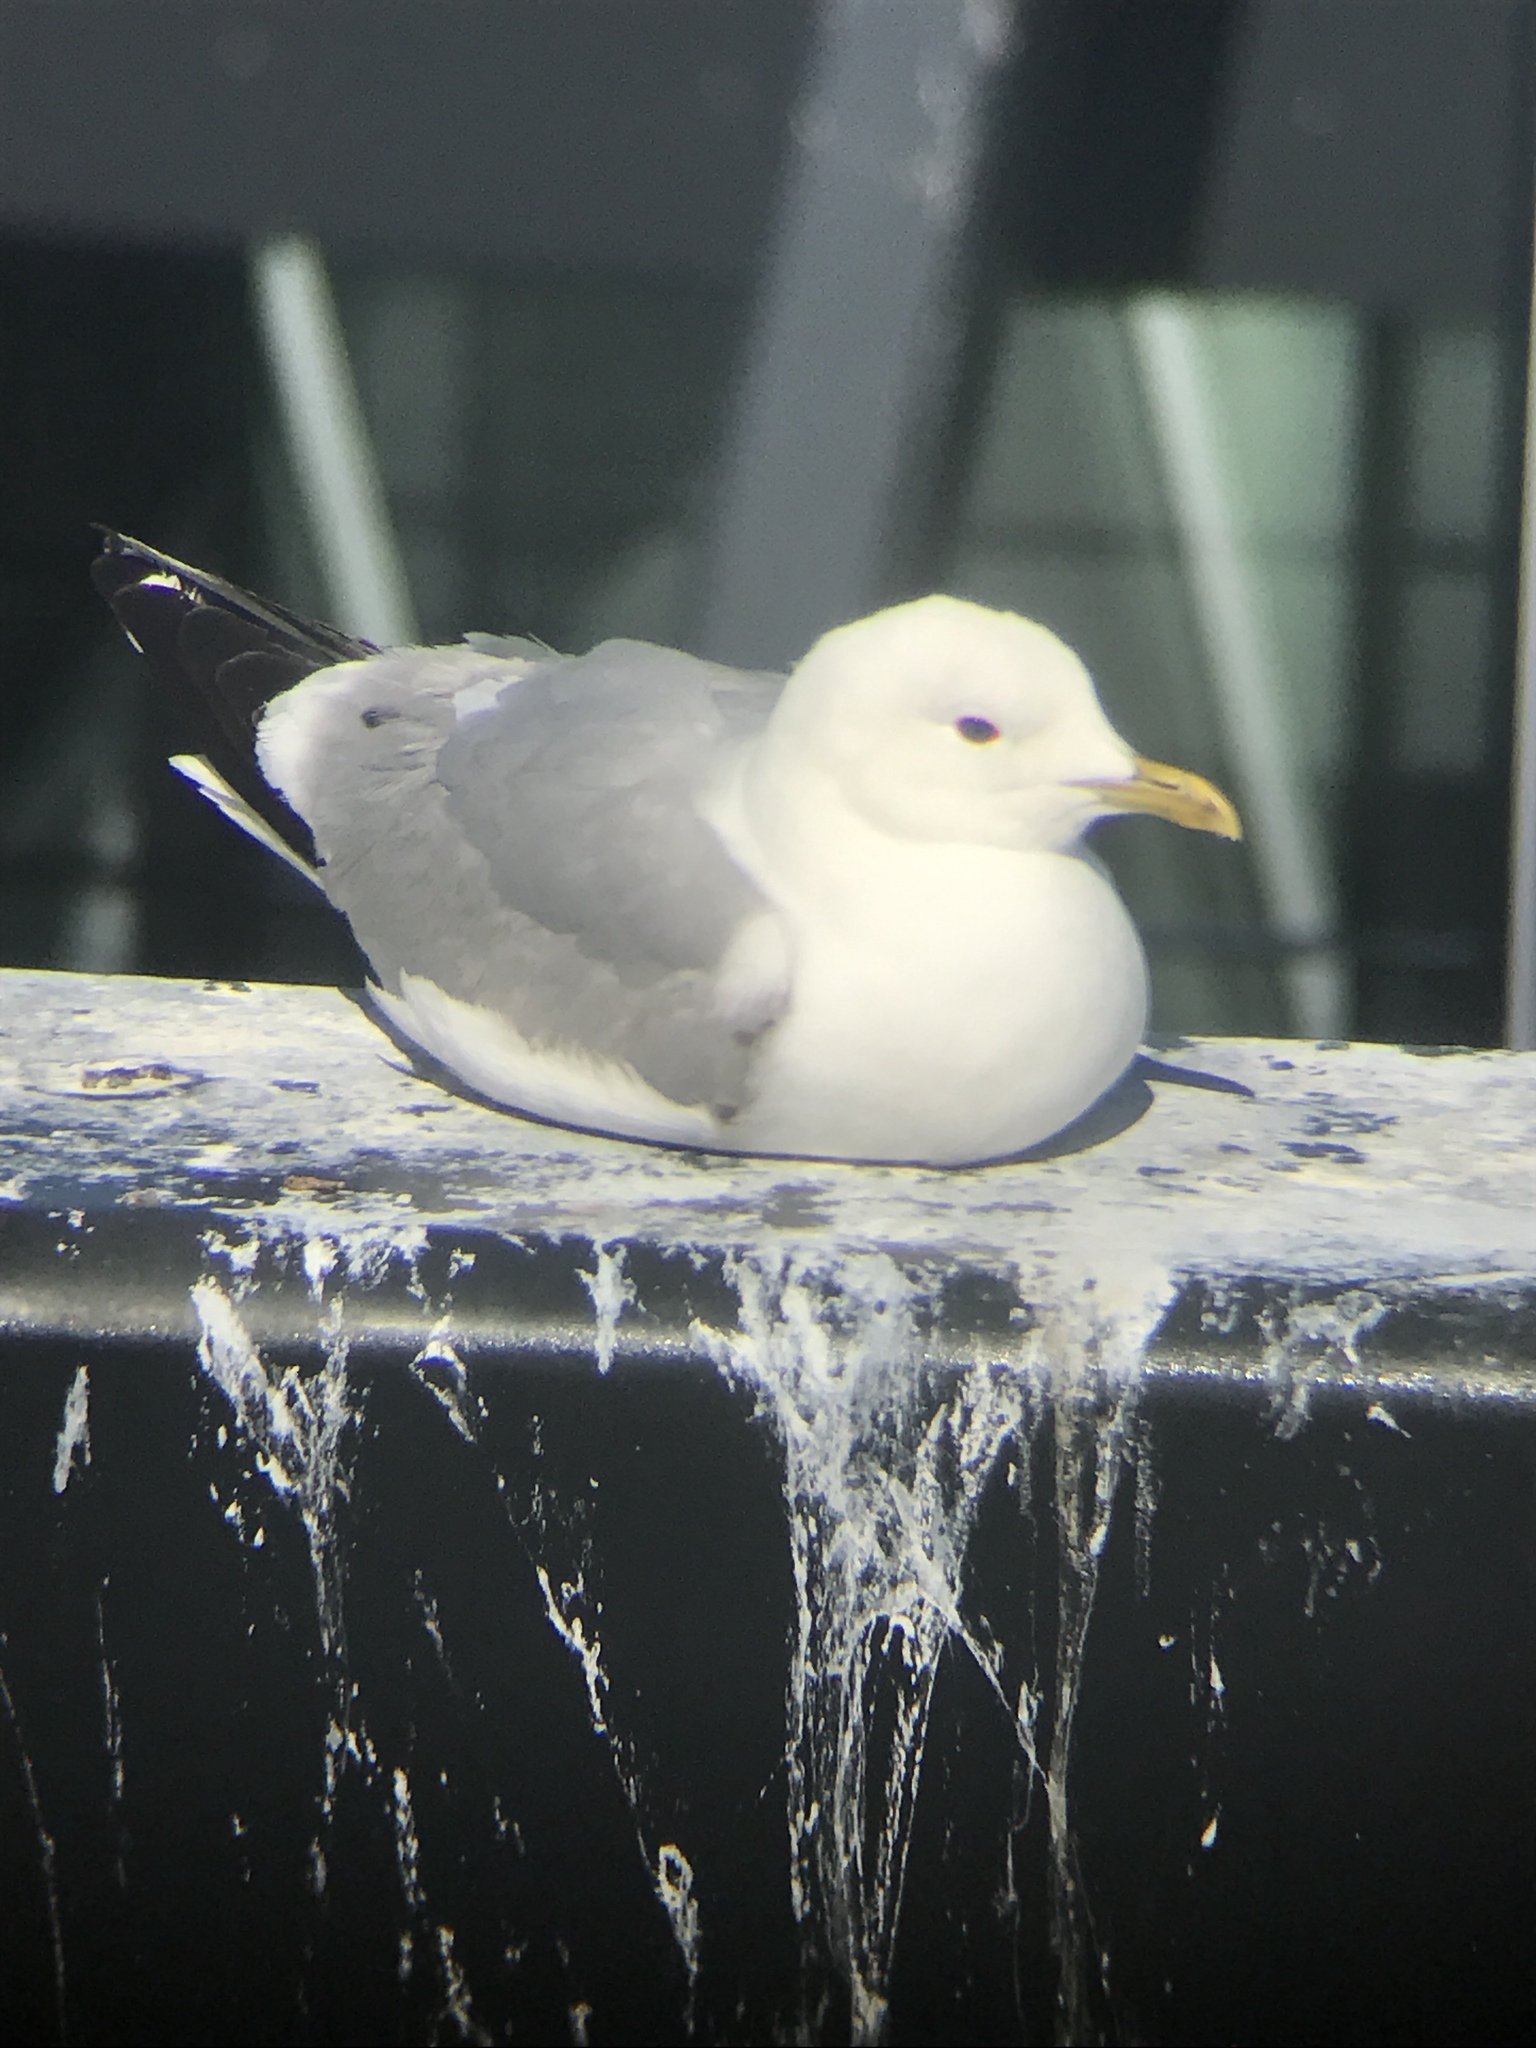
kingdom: Animalia
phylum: Chordata
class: Aves
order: Charadriiformes
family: Laridae
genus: Larus
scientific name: Larus canus
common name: Mew gull
